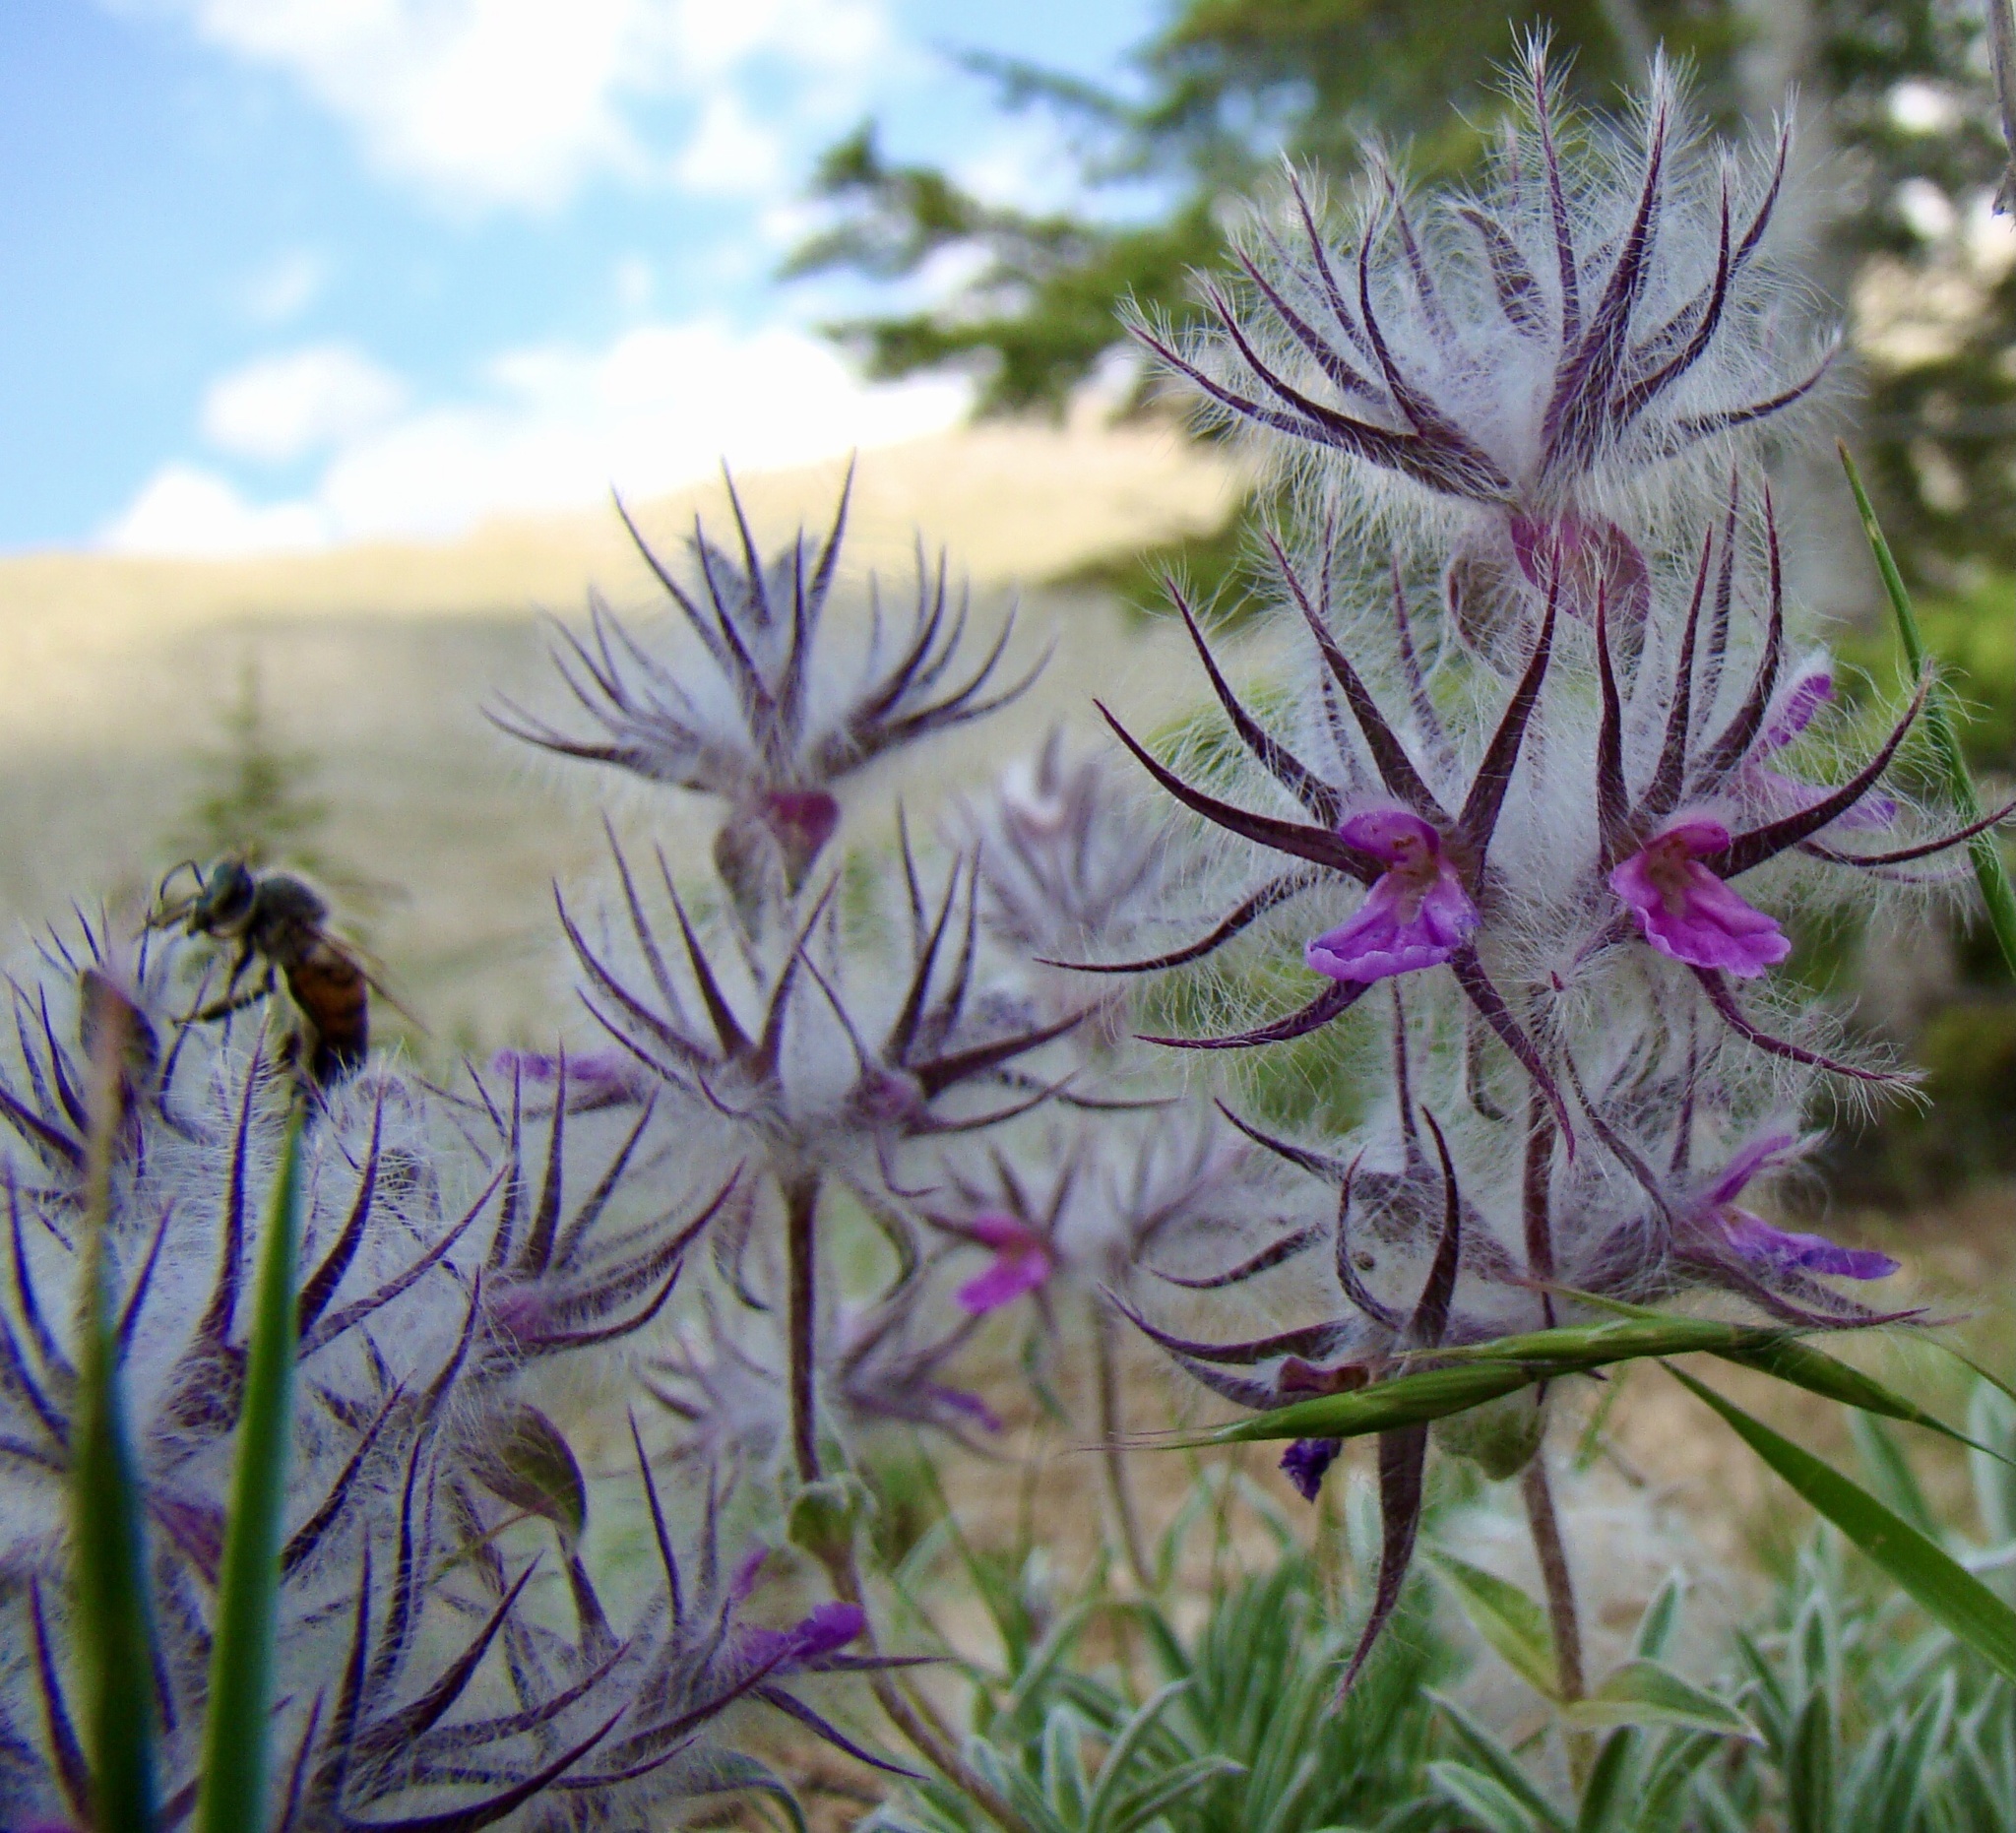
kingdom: Plantae
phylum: Tracheophyta
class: Magnoliopsida
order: Lamiales
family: Lamiaceae
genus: Stachys
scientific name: Stachys lavandulifolia
